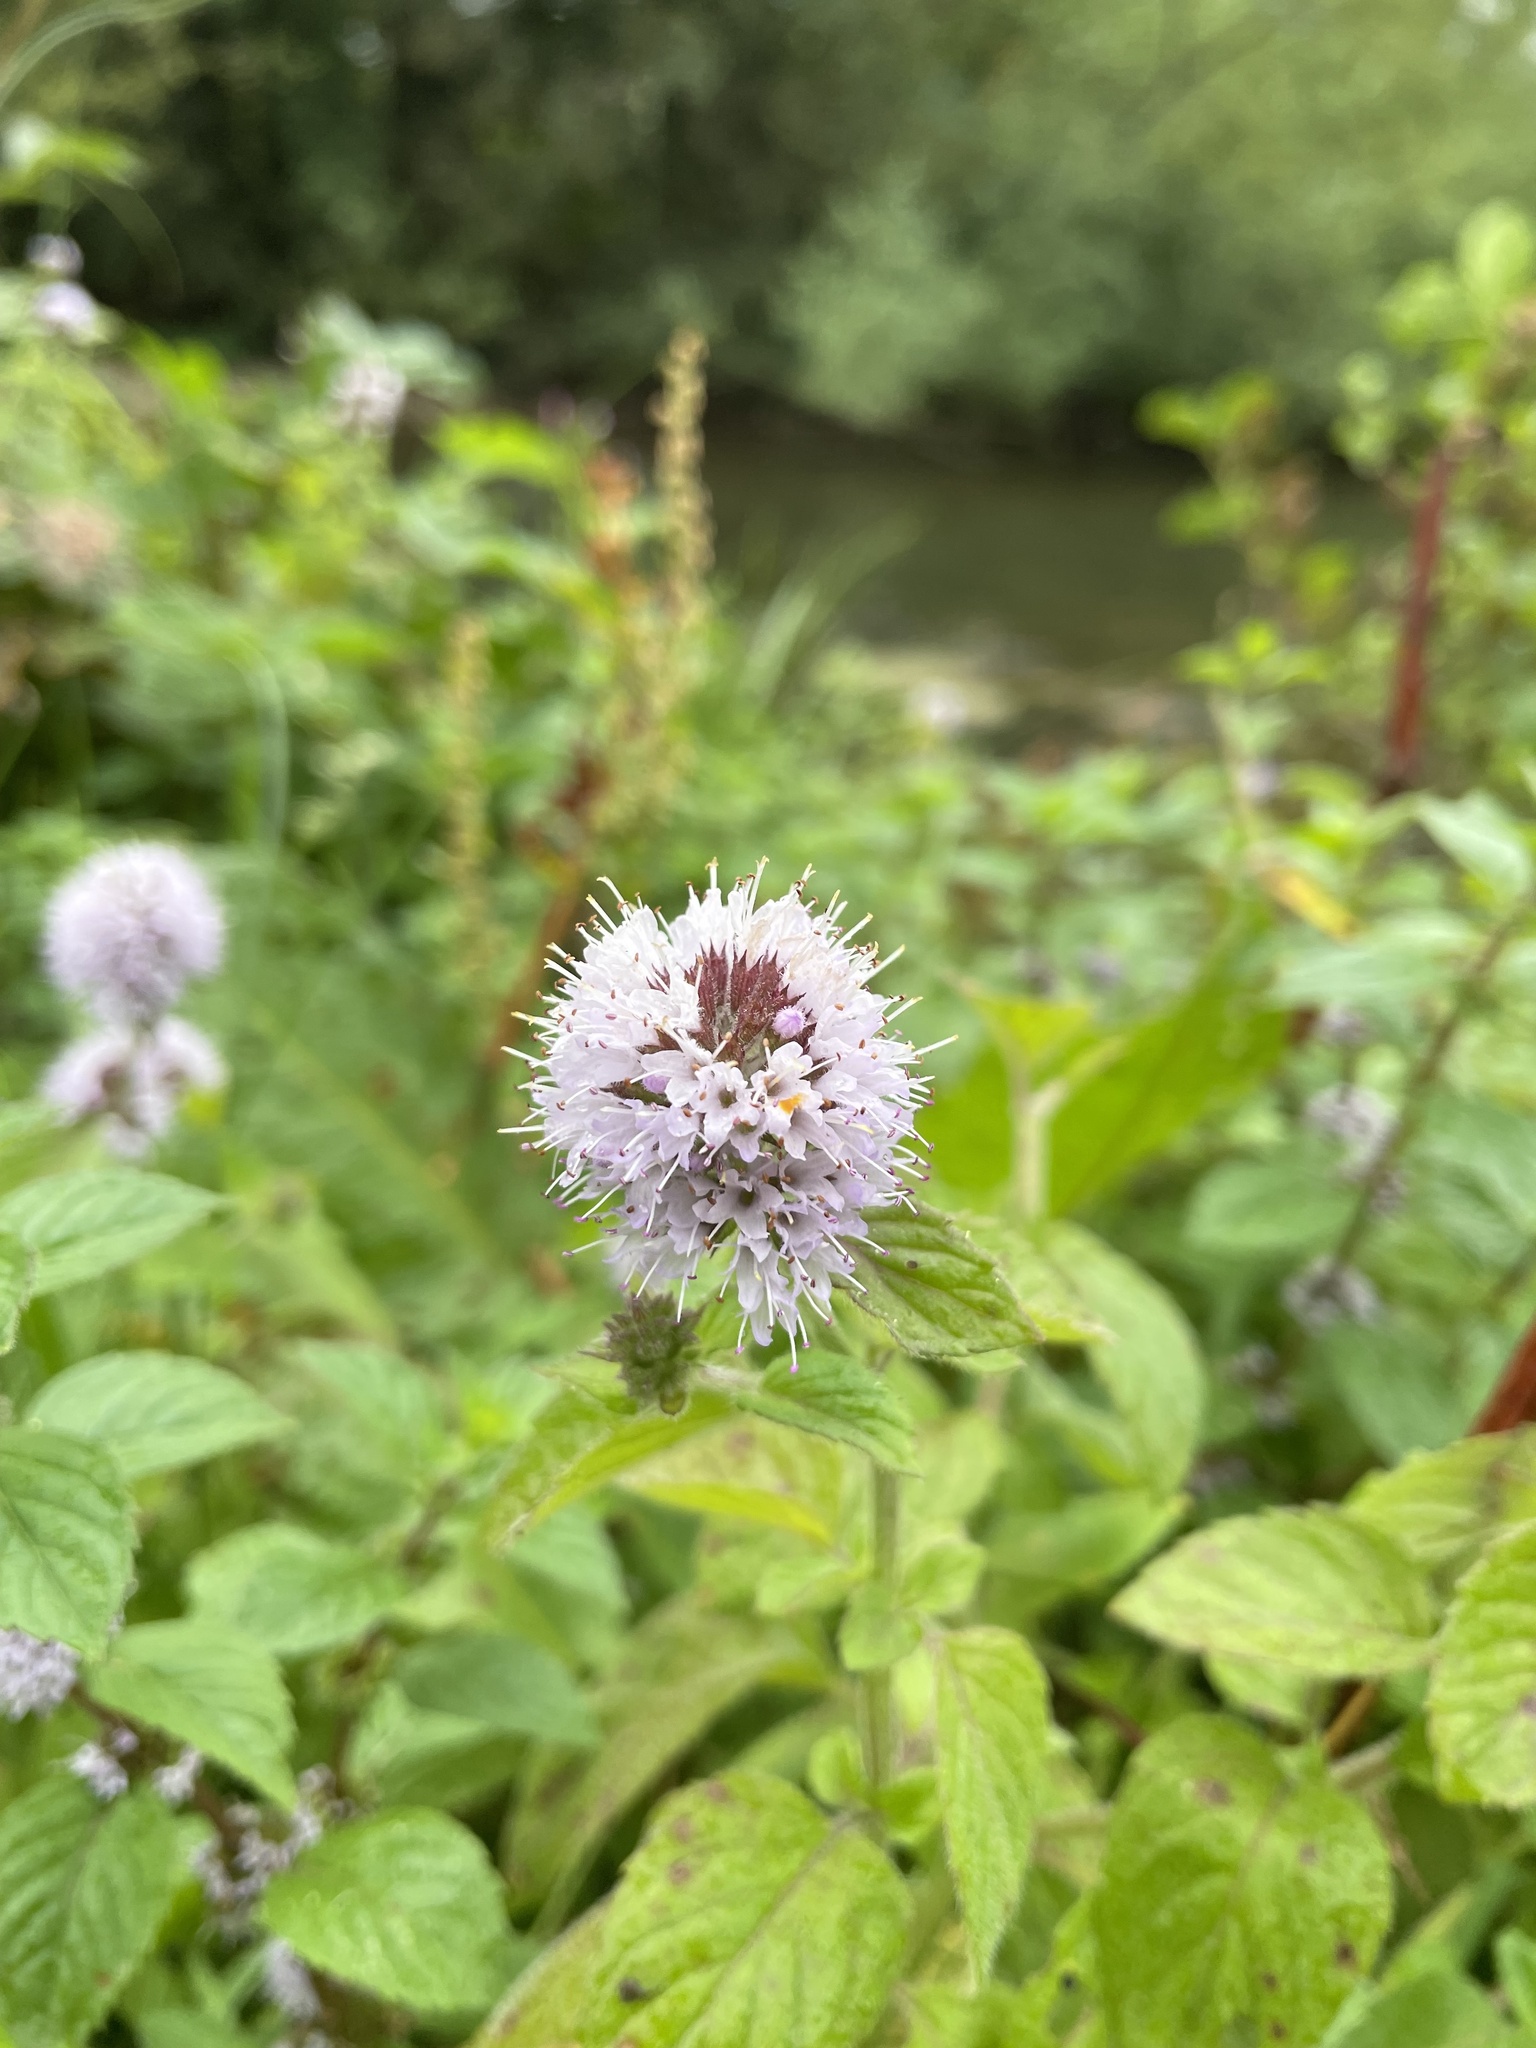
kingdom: Plantae
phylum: Tracheophyta
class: Magnoliopsida
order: Lamiales
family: Lamiaceae
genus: Mentha
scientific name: Mentha aquatica
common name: Water mint
